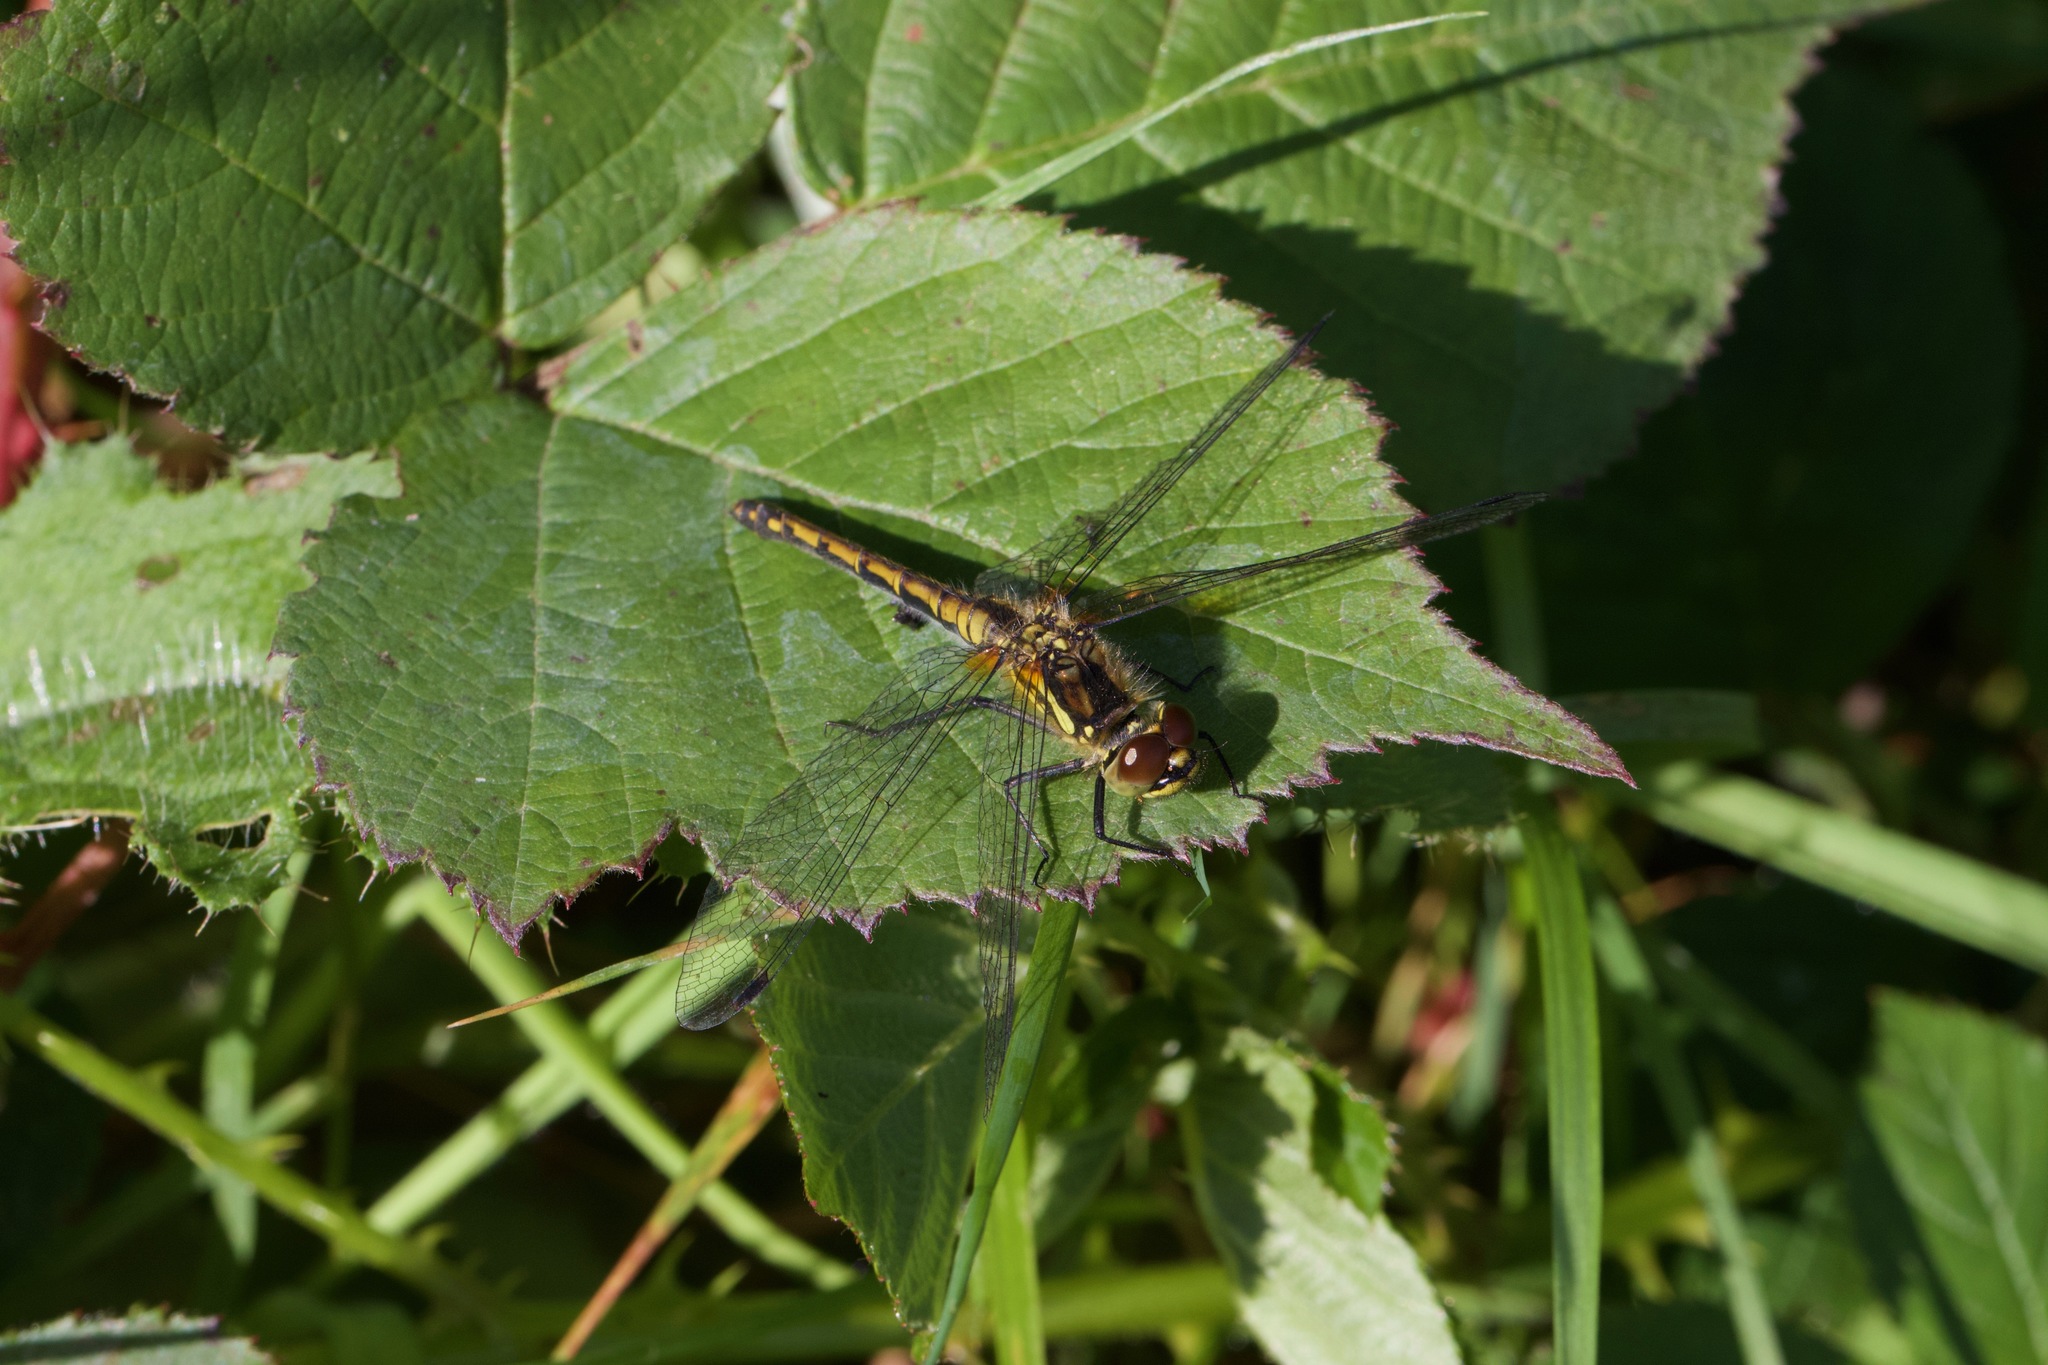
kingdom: Animalia
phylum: Arthropoda
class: Insecta
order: Odonata
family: Libellulidae
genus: Sympetrum
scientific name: Sympetrum danae
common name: Black darter
